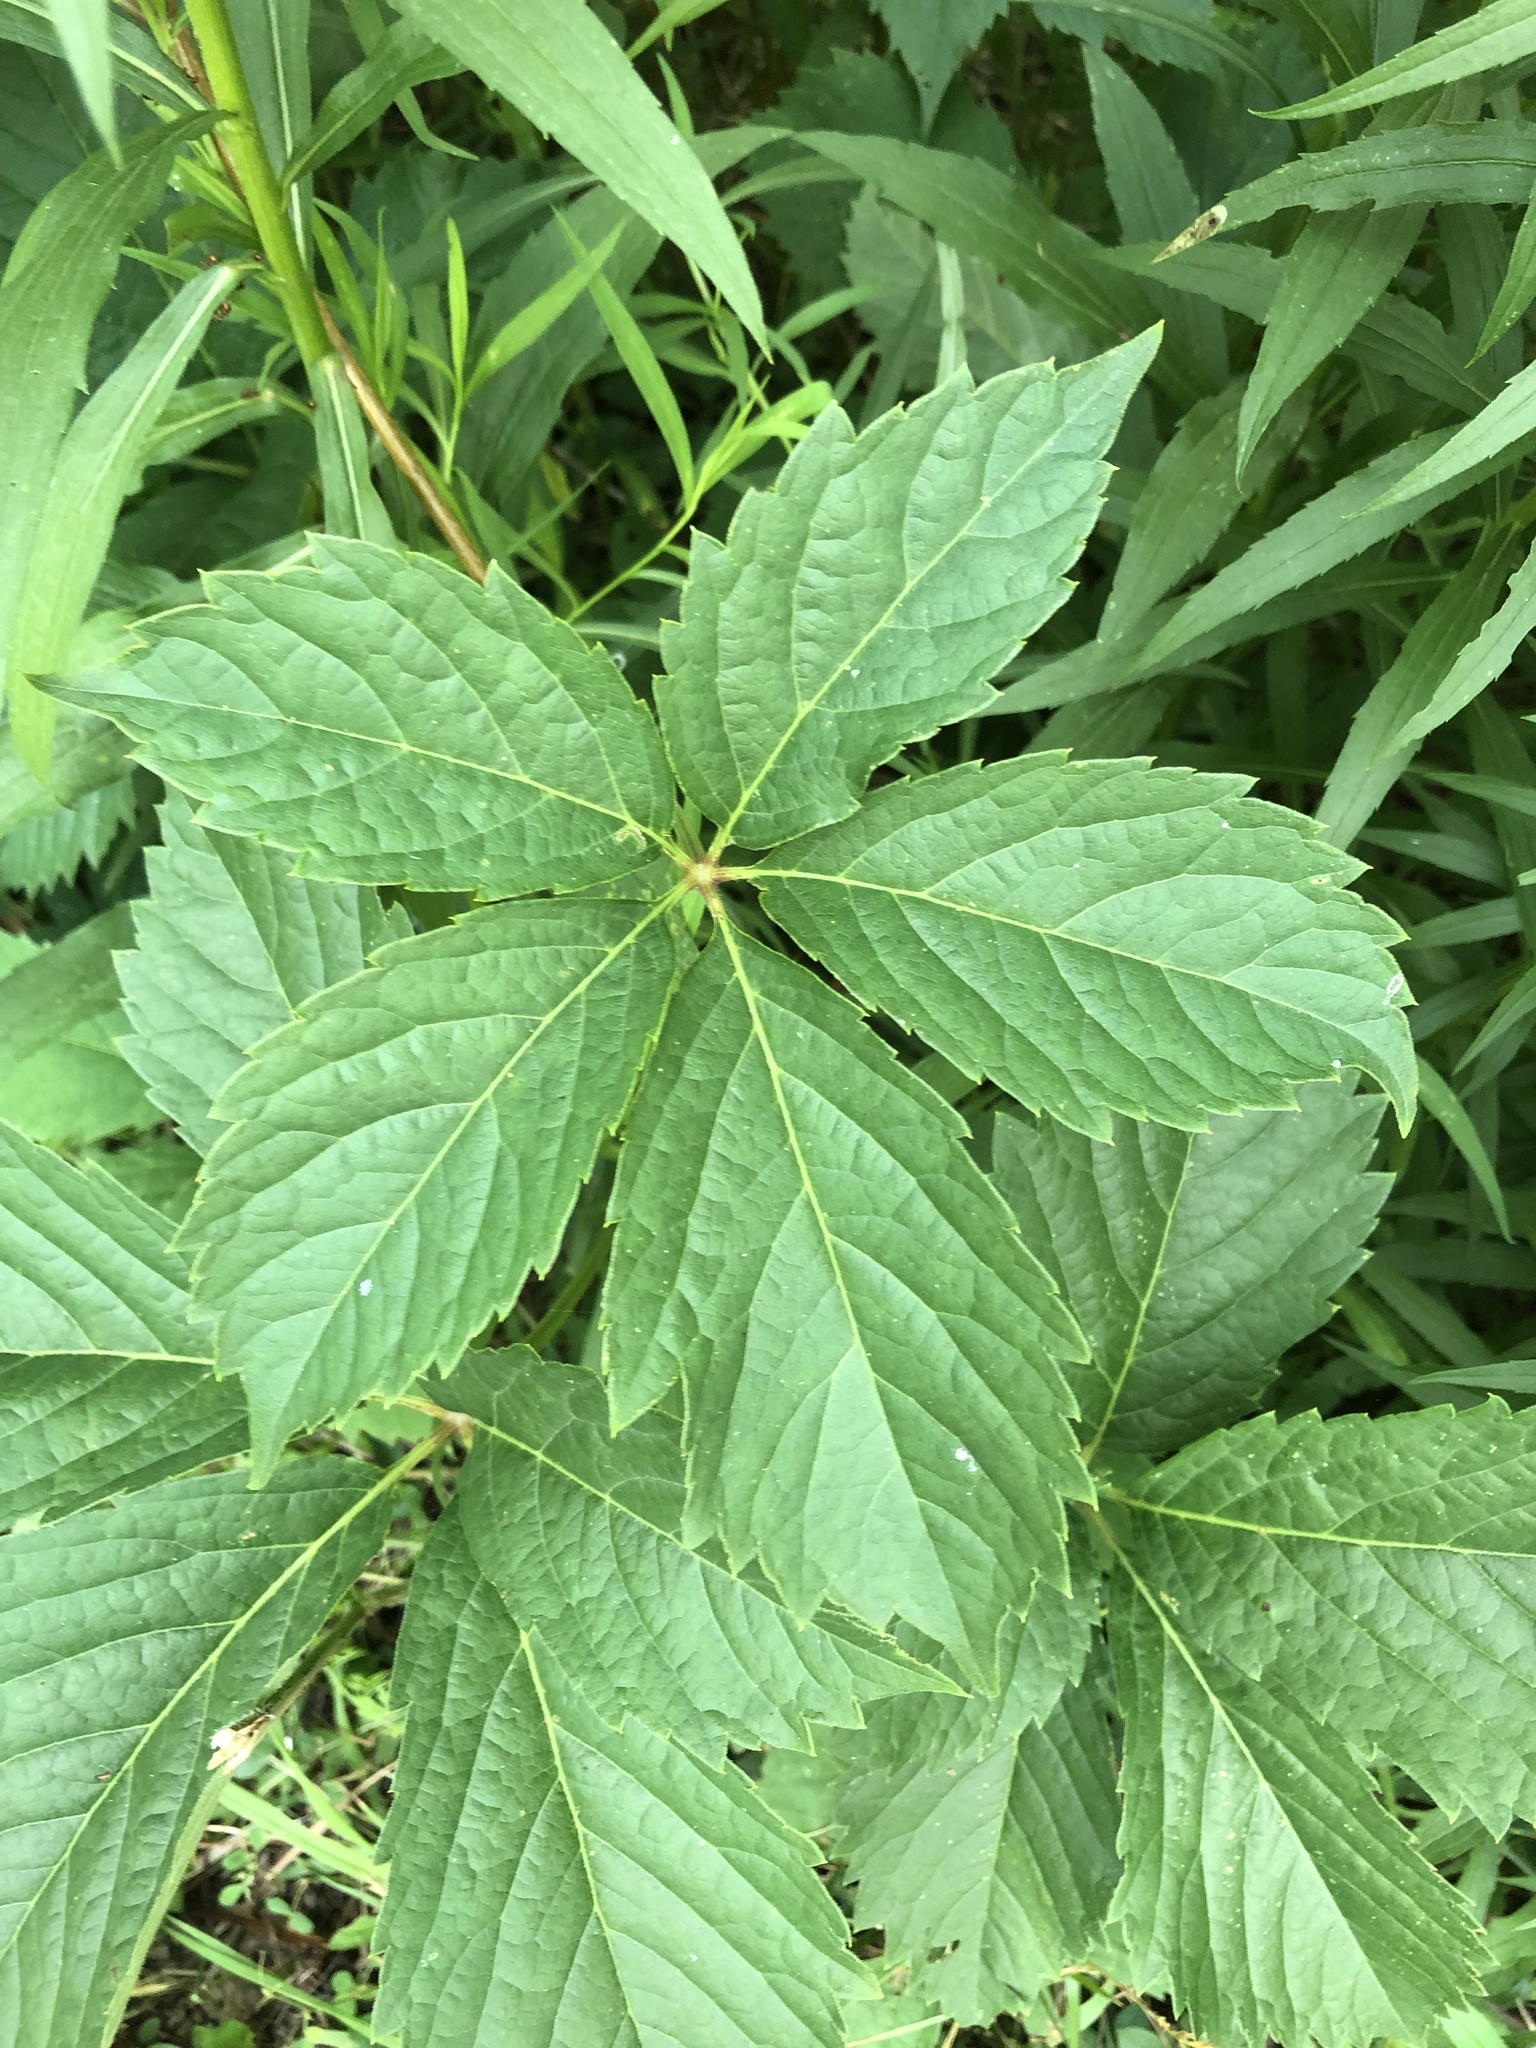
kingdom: Plantae
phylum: Tracheophyta
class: Magnoliopsida
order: Vitales
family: Vitaceae
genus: Parthenocissus
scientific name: Parthenocissus inserta
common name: False virginia-creeper
